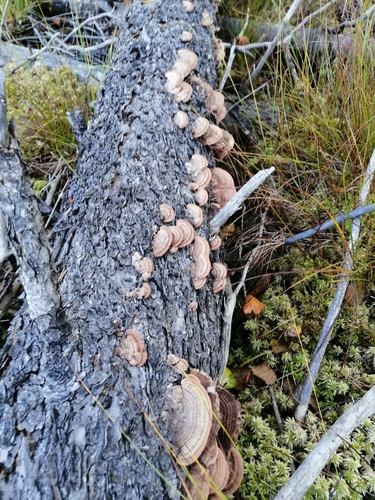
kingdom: Fungi
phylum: Basidiomycota
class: Agaricomycetes
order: Hymenochaetales
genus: Trichaptum
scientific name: Trichaptum
